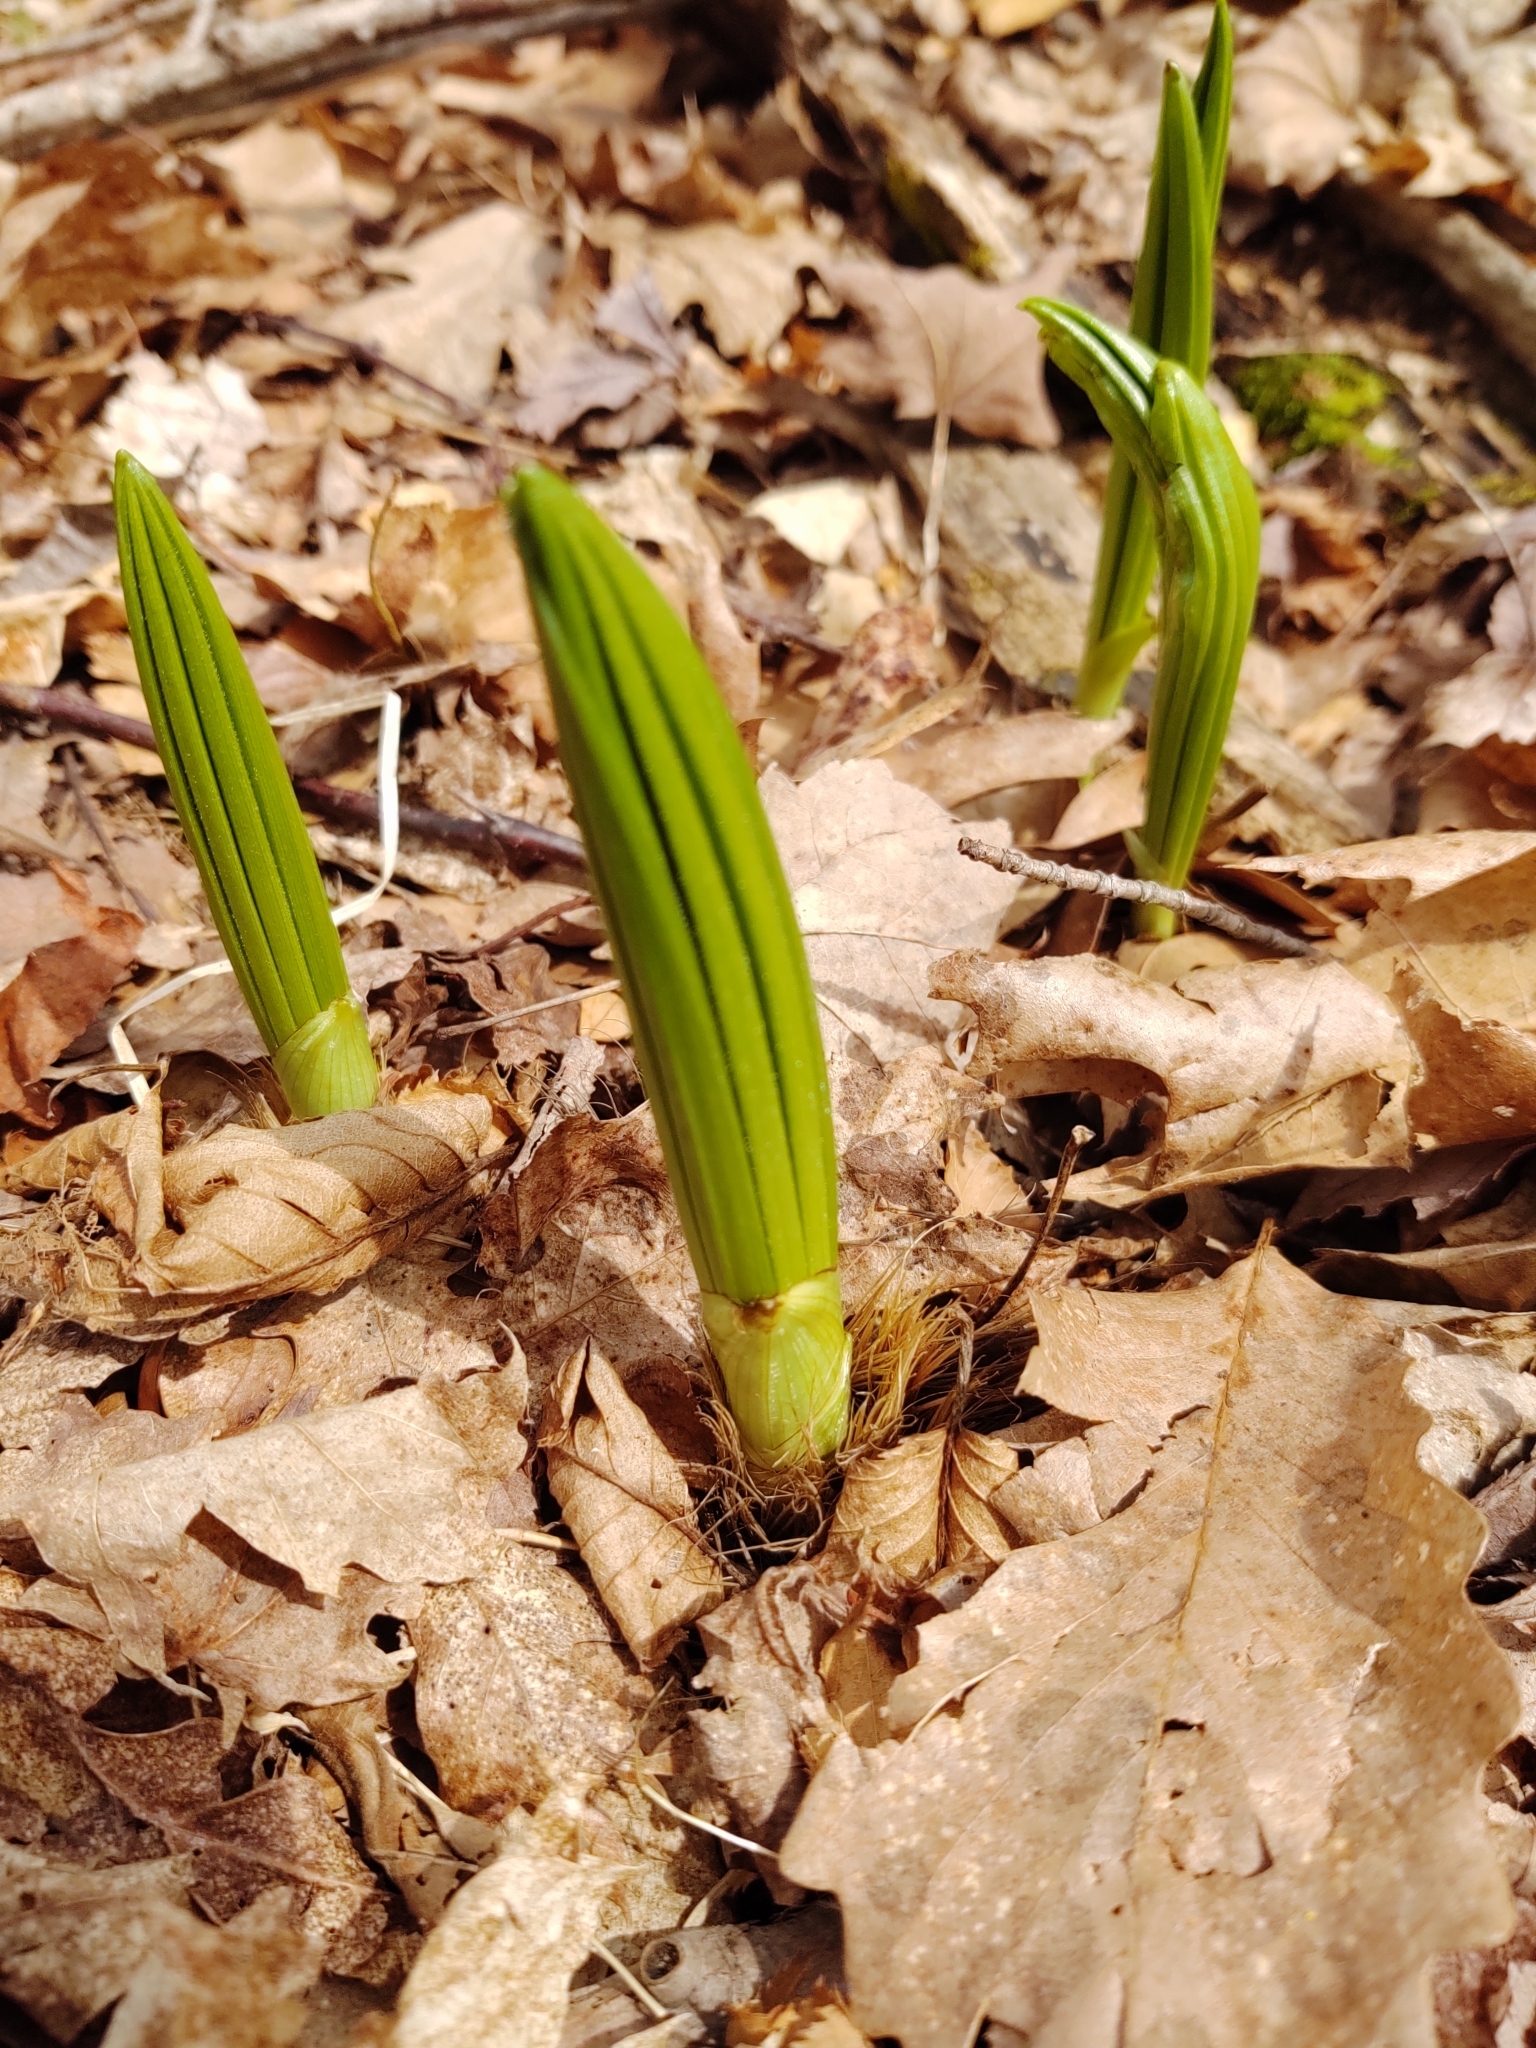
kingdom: Plantae
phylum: Tracheophyta
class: Liliopsida
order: Liliales
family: Melanthiaceae
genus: Veratrum
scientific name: Veratrum viride
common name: American false hellebore
